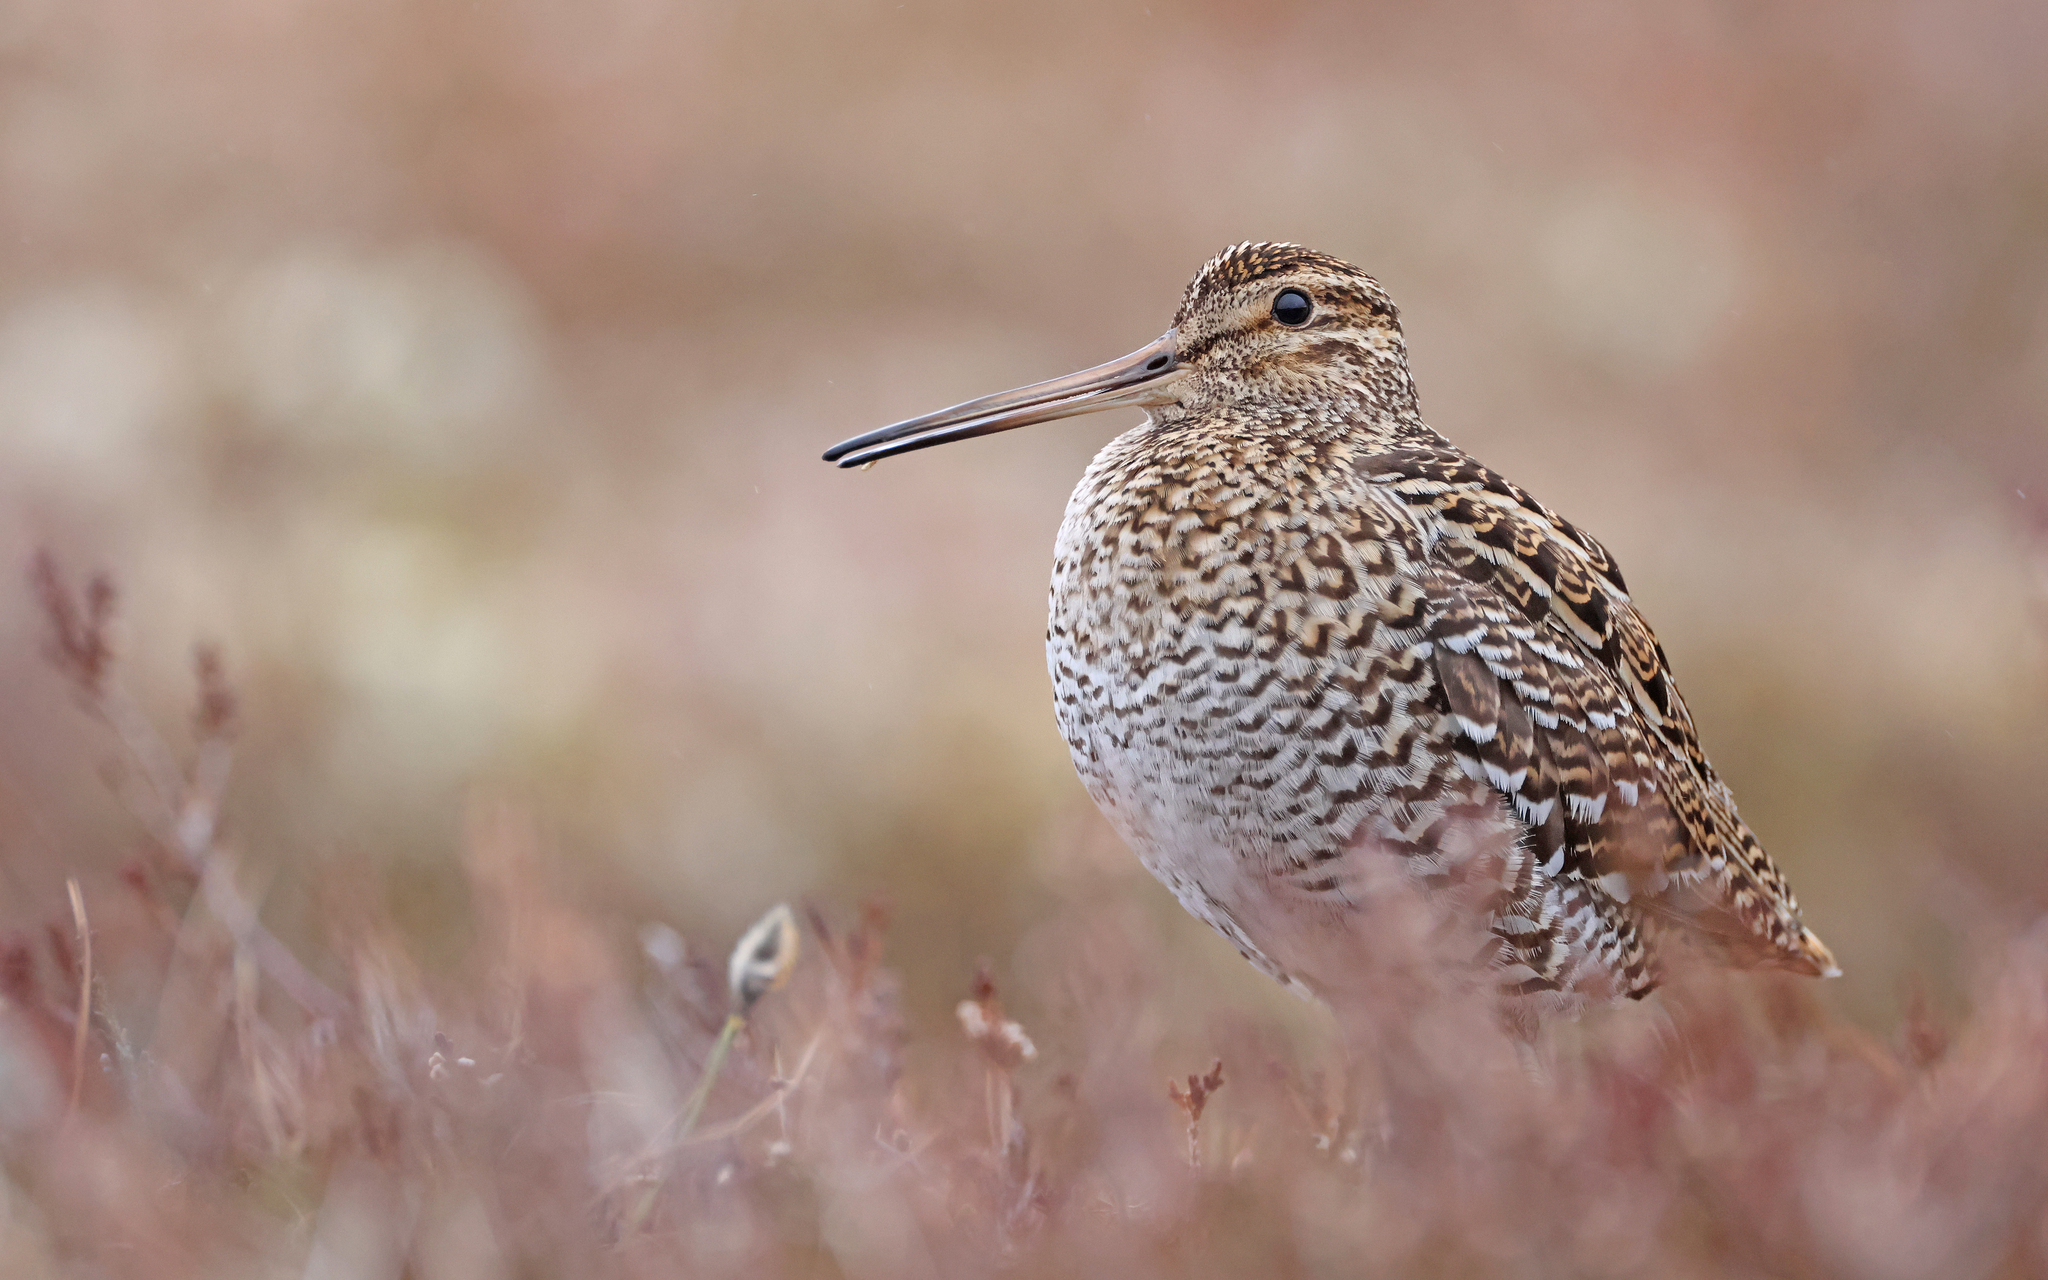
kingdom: Animalia
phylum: Chordata
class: Aves
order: Charadriiformes
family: Scolopacidae
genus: Gallinago
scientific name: Gallinago media
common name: Great snipe
